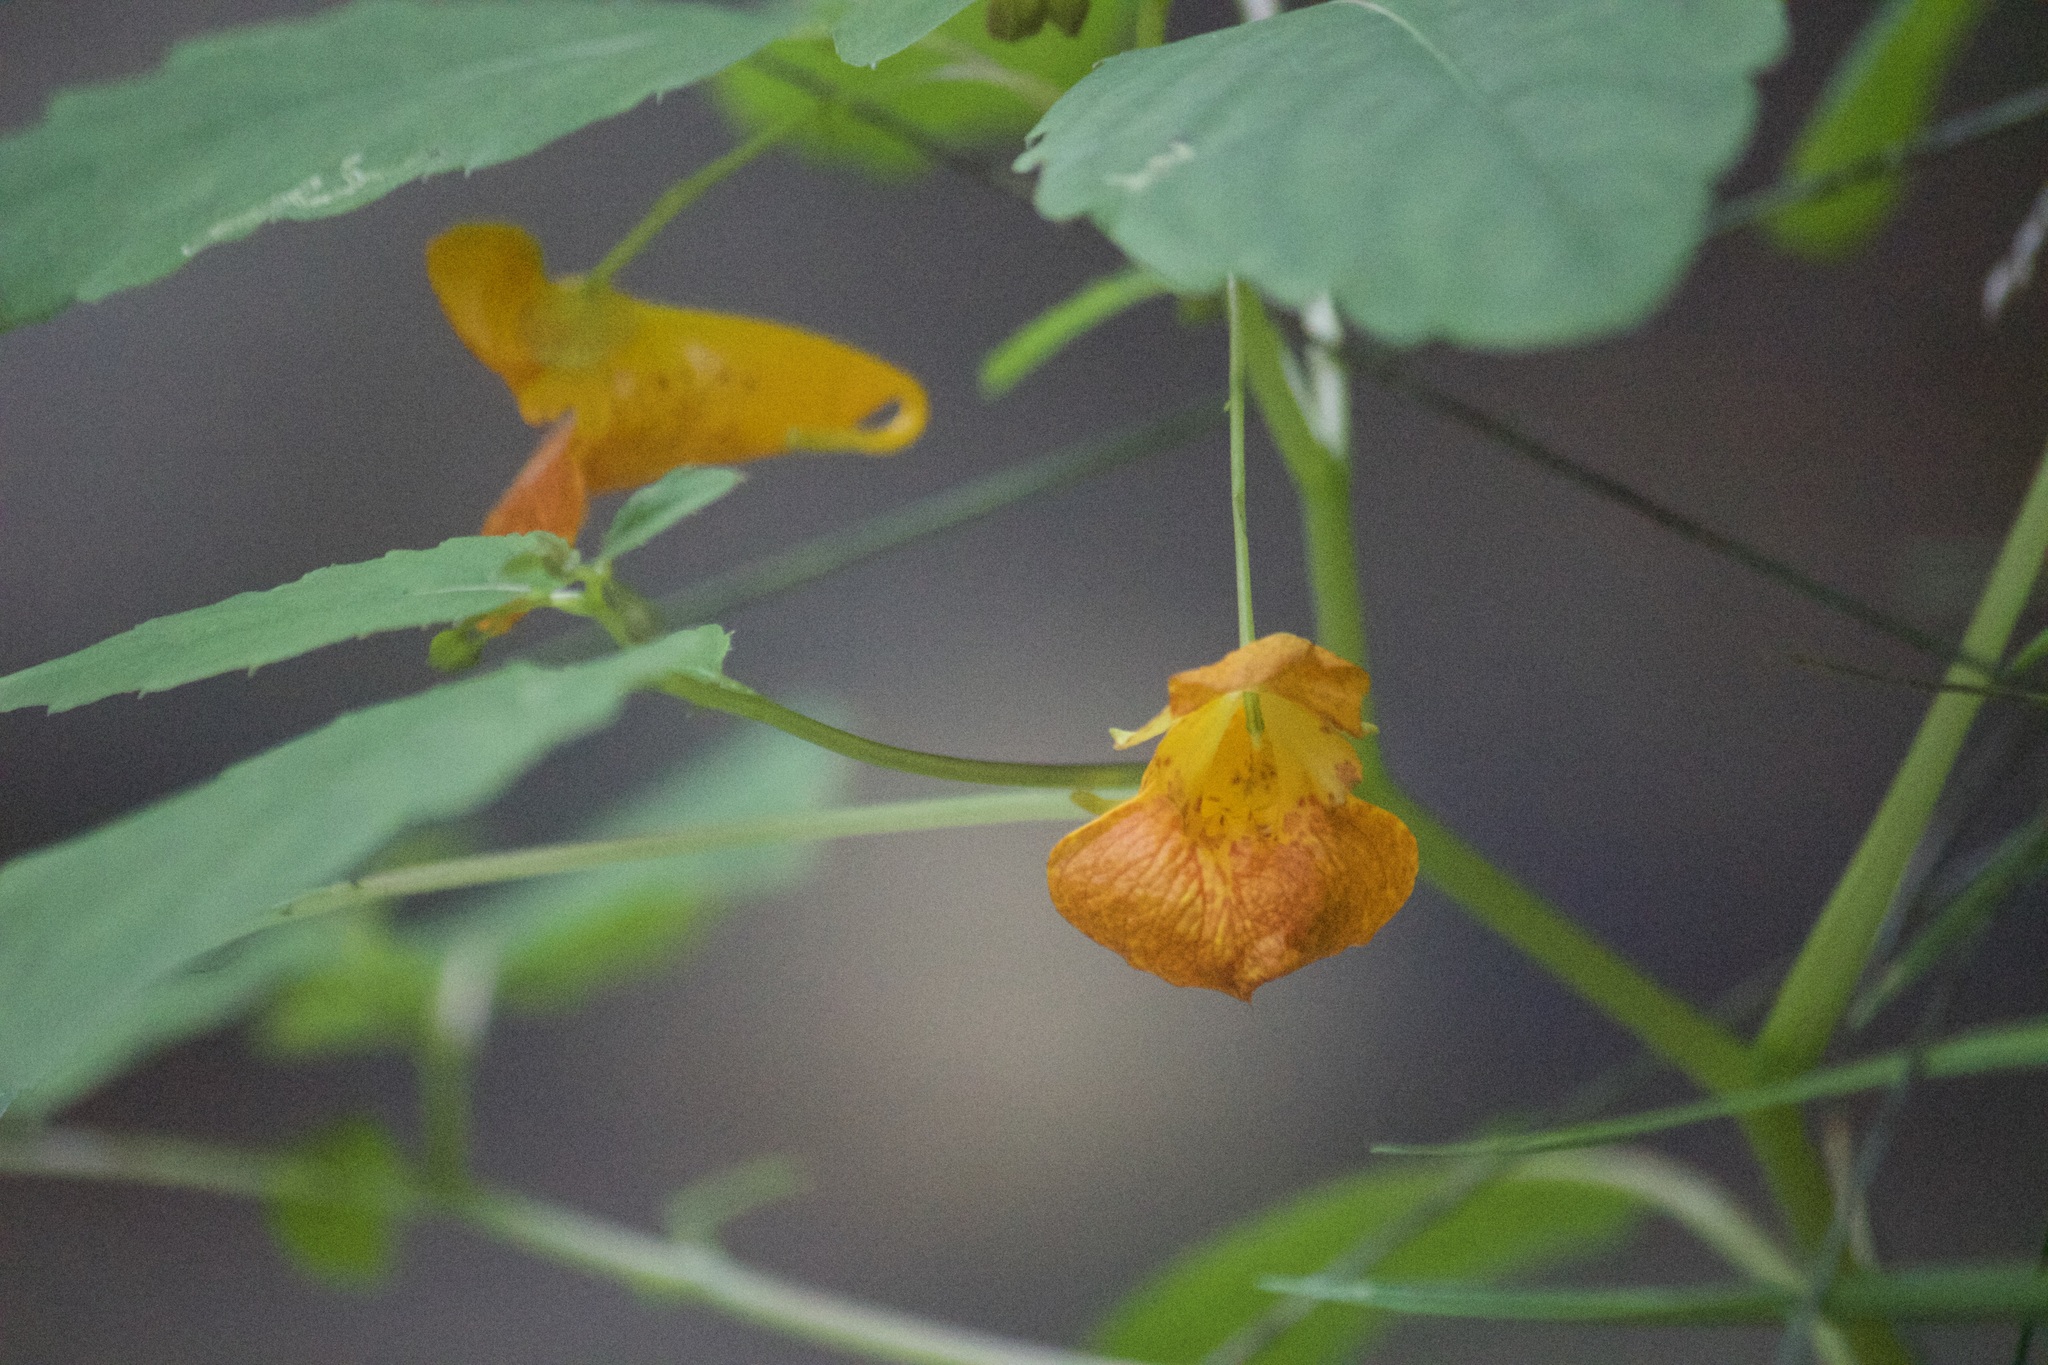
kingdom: Plantae
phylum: Tracheophyta
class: Magnoliopsida
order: Ericales
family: Balsaminaceae
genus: Impatiens
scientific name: Impatiens capensis
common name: Orange balsam
